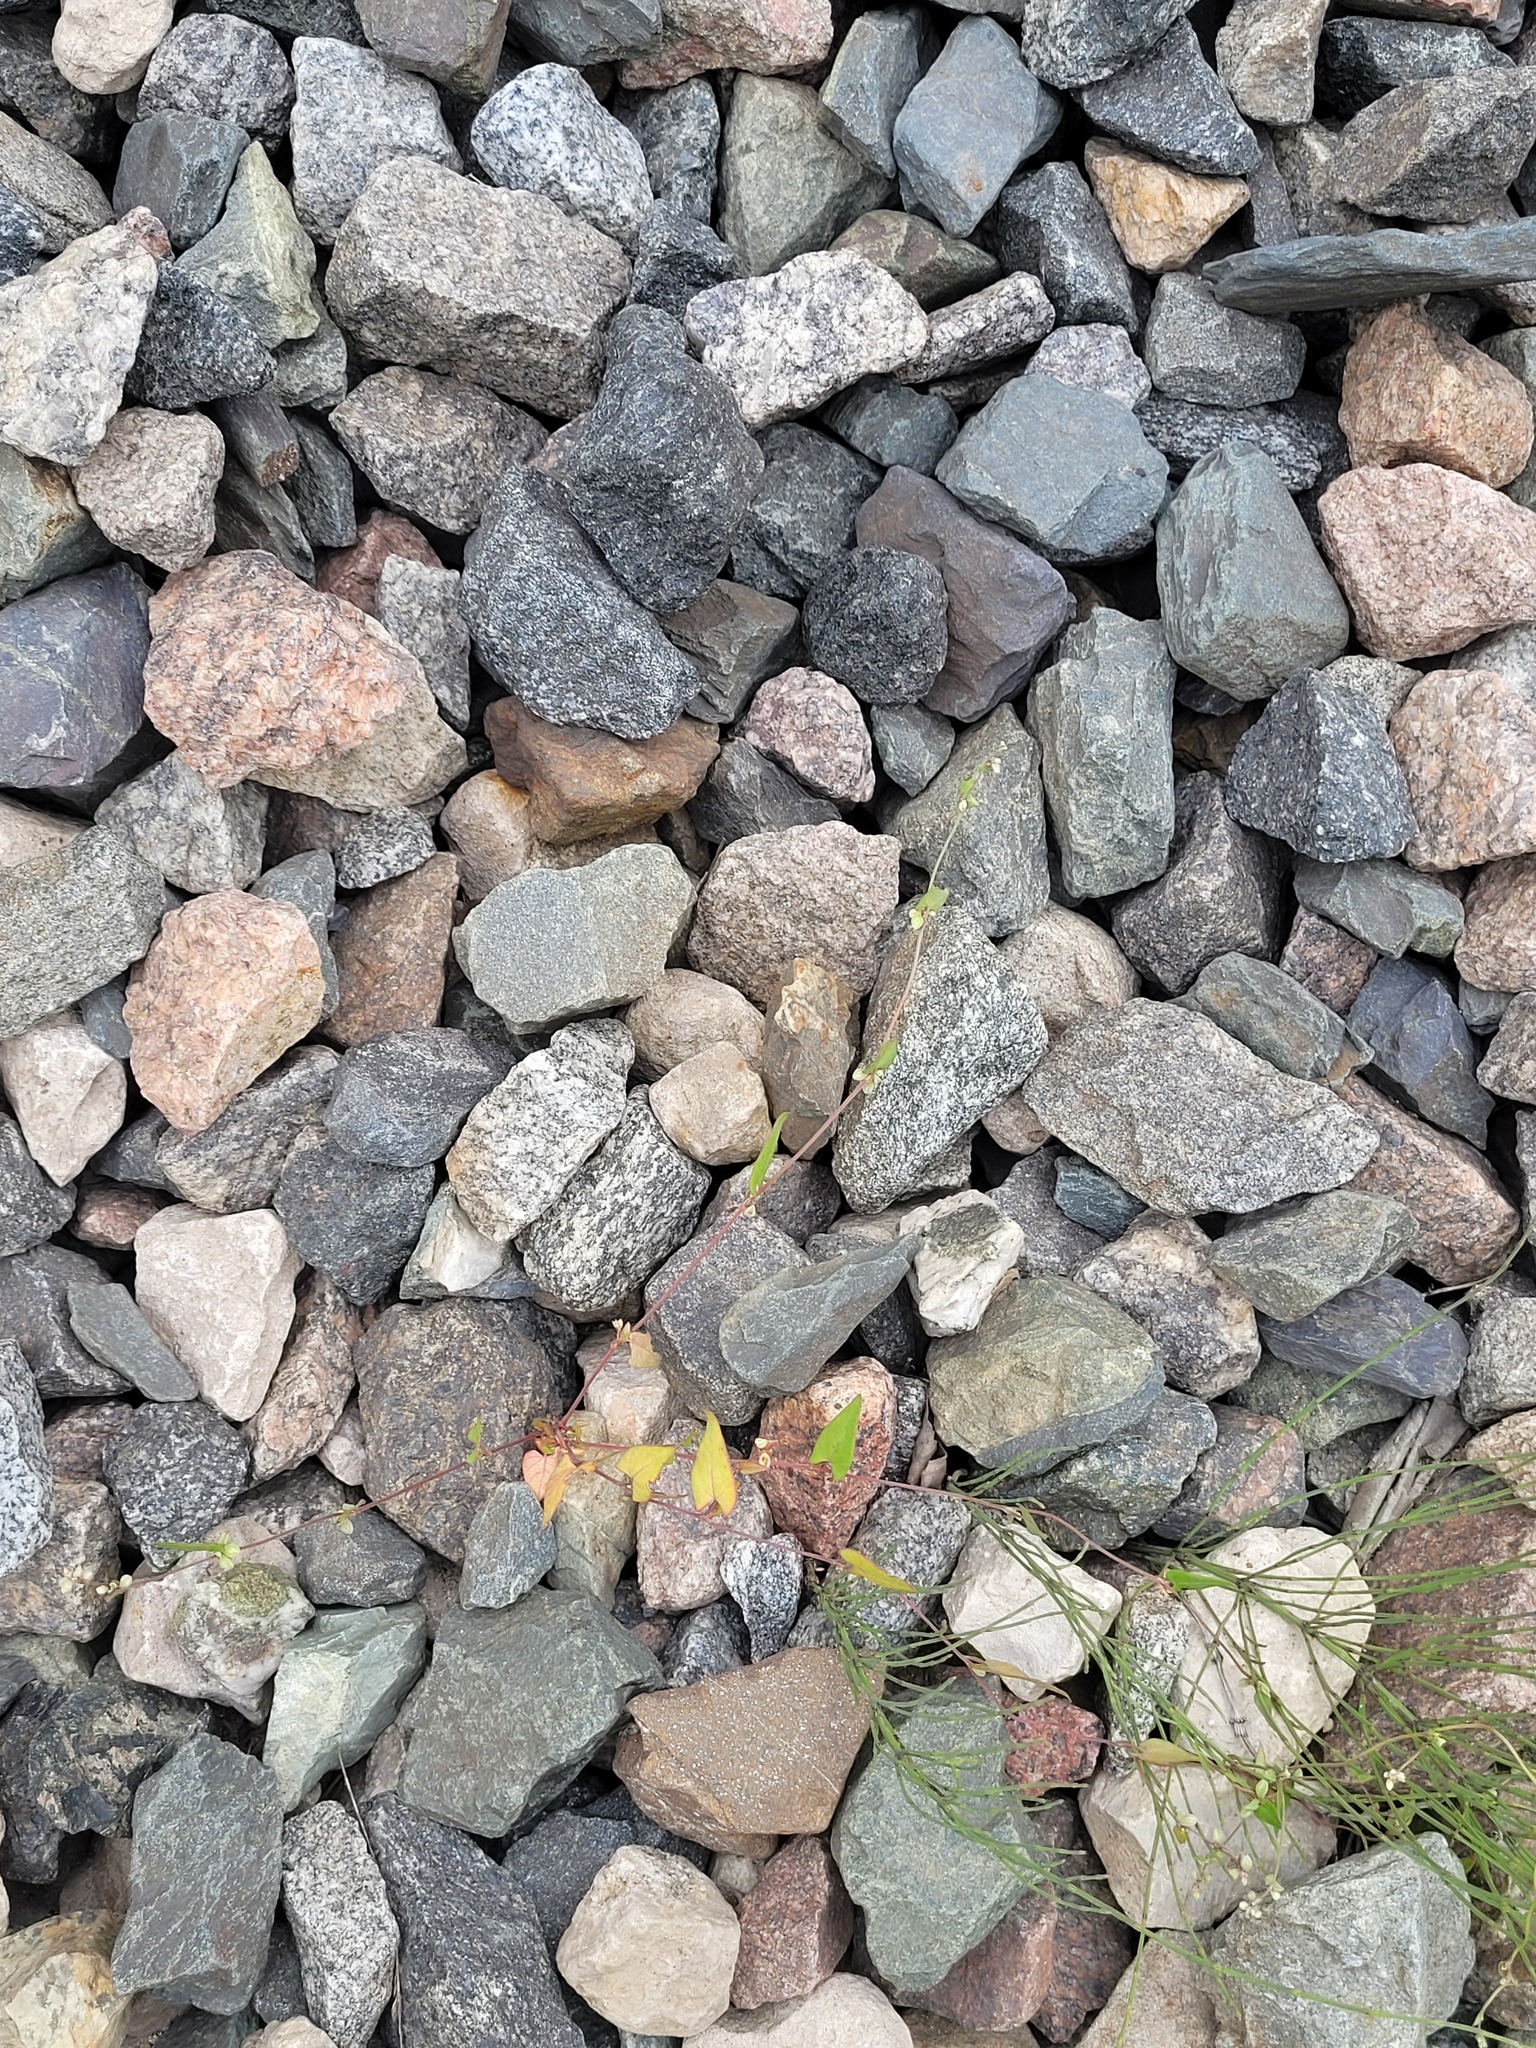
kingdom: Plantae
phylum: Tracheophyta
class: Magnoliopsida
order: Caryophyllales
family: Polygonaceae
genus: Fallopia
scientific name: Fallopia convolvulus
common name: Black bindweed
